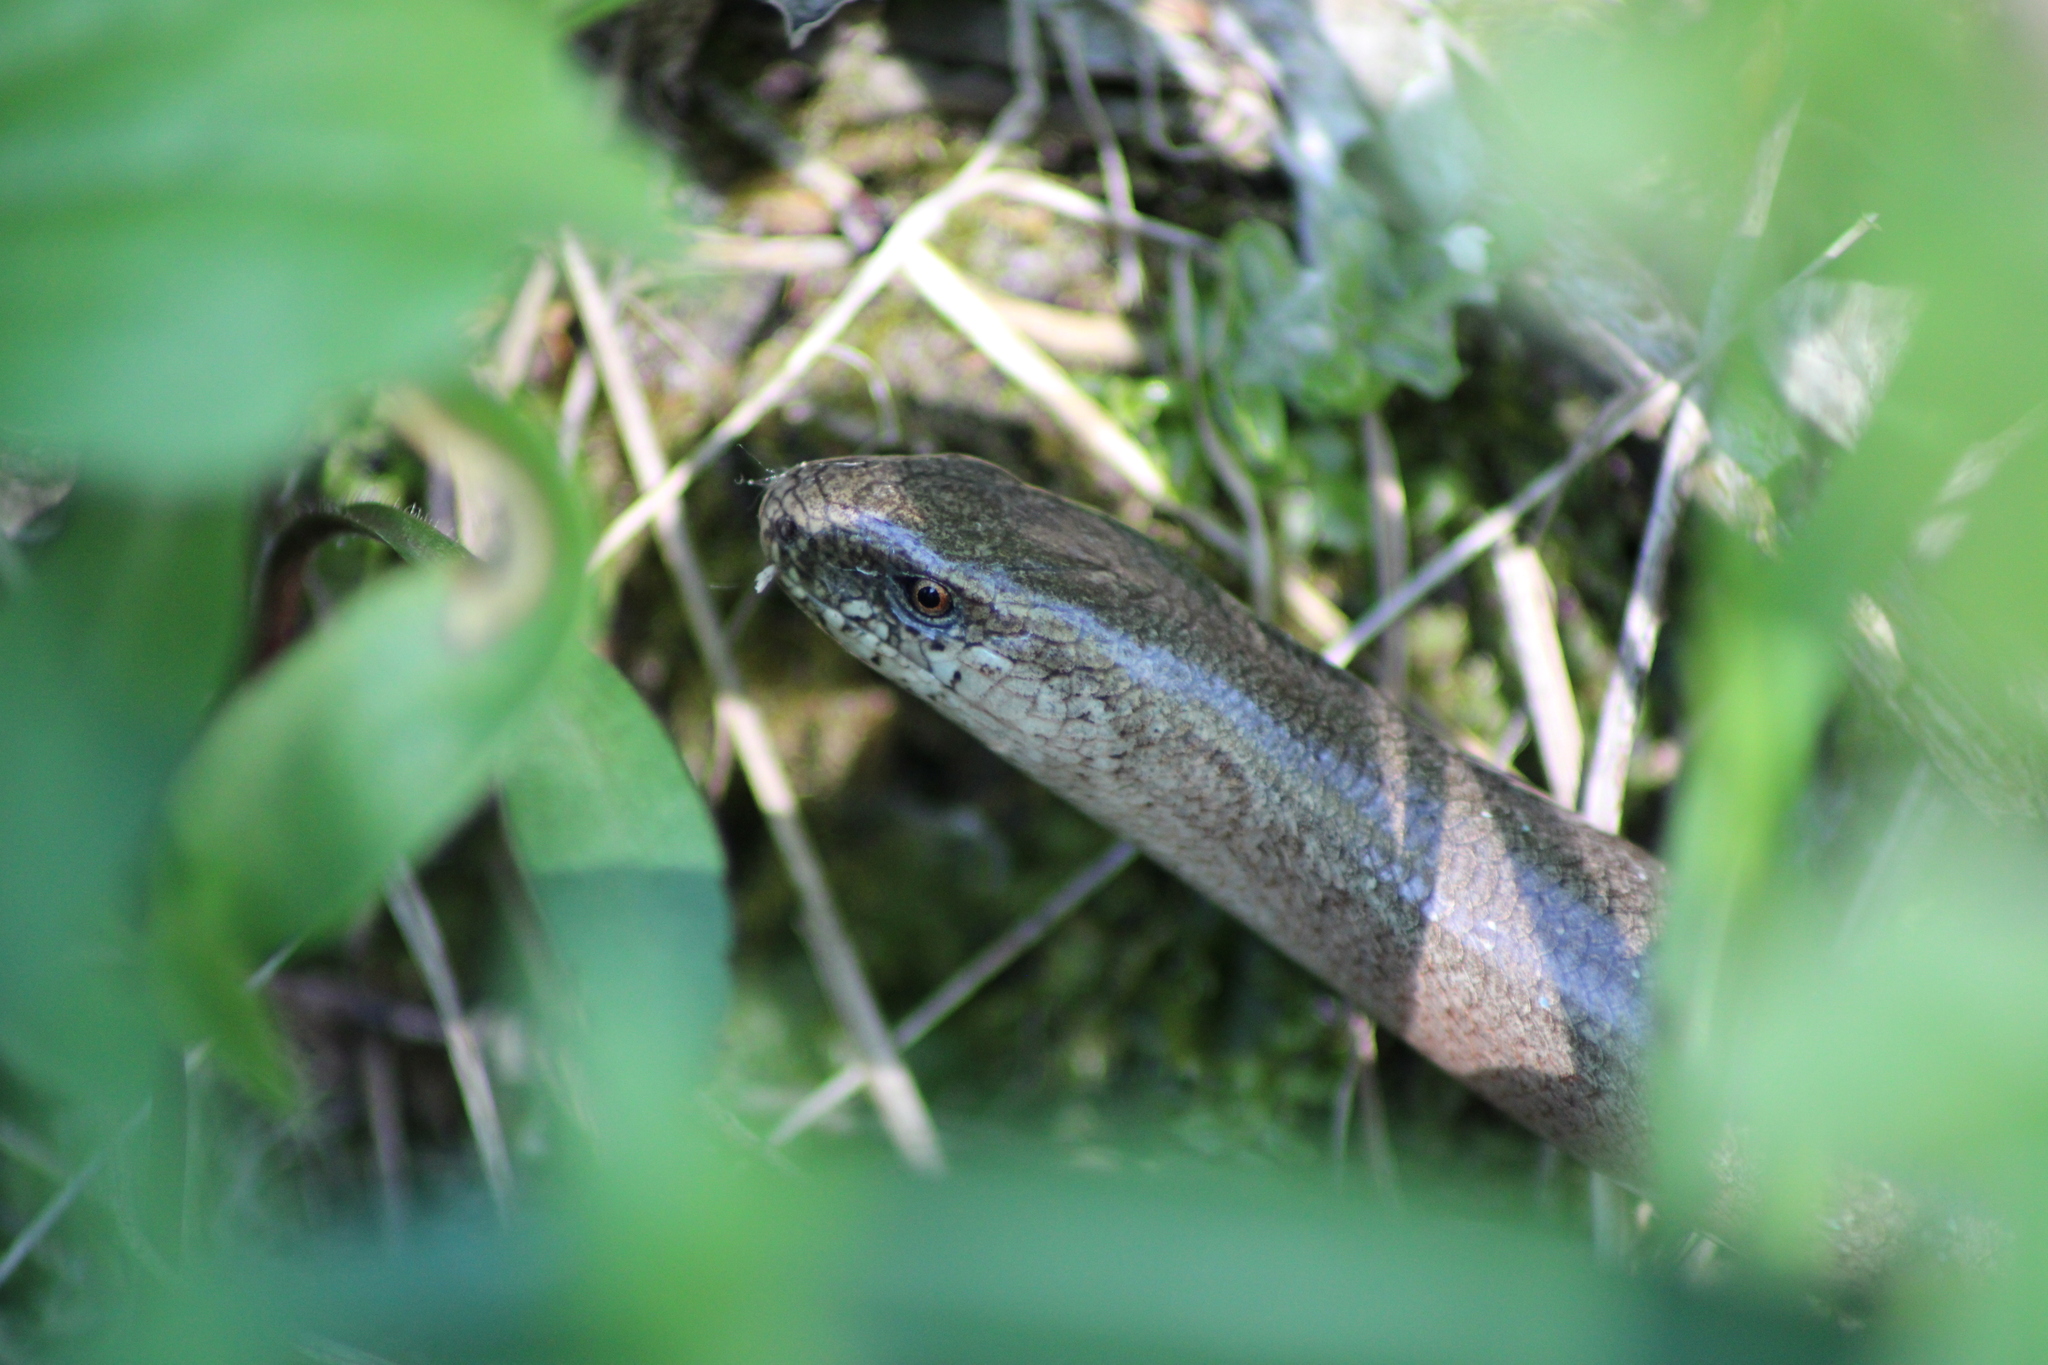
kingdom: Animalia
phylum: Chordata
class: Squamata
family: Anguidae
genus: Anguis
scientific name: Anguis fragilis
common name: Slow worm
